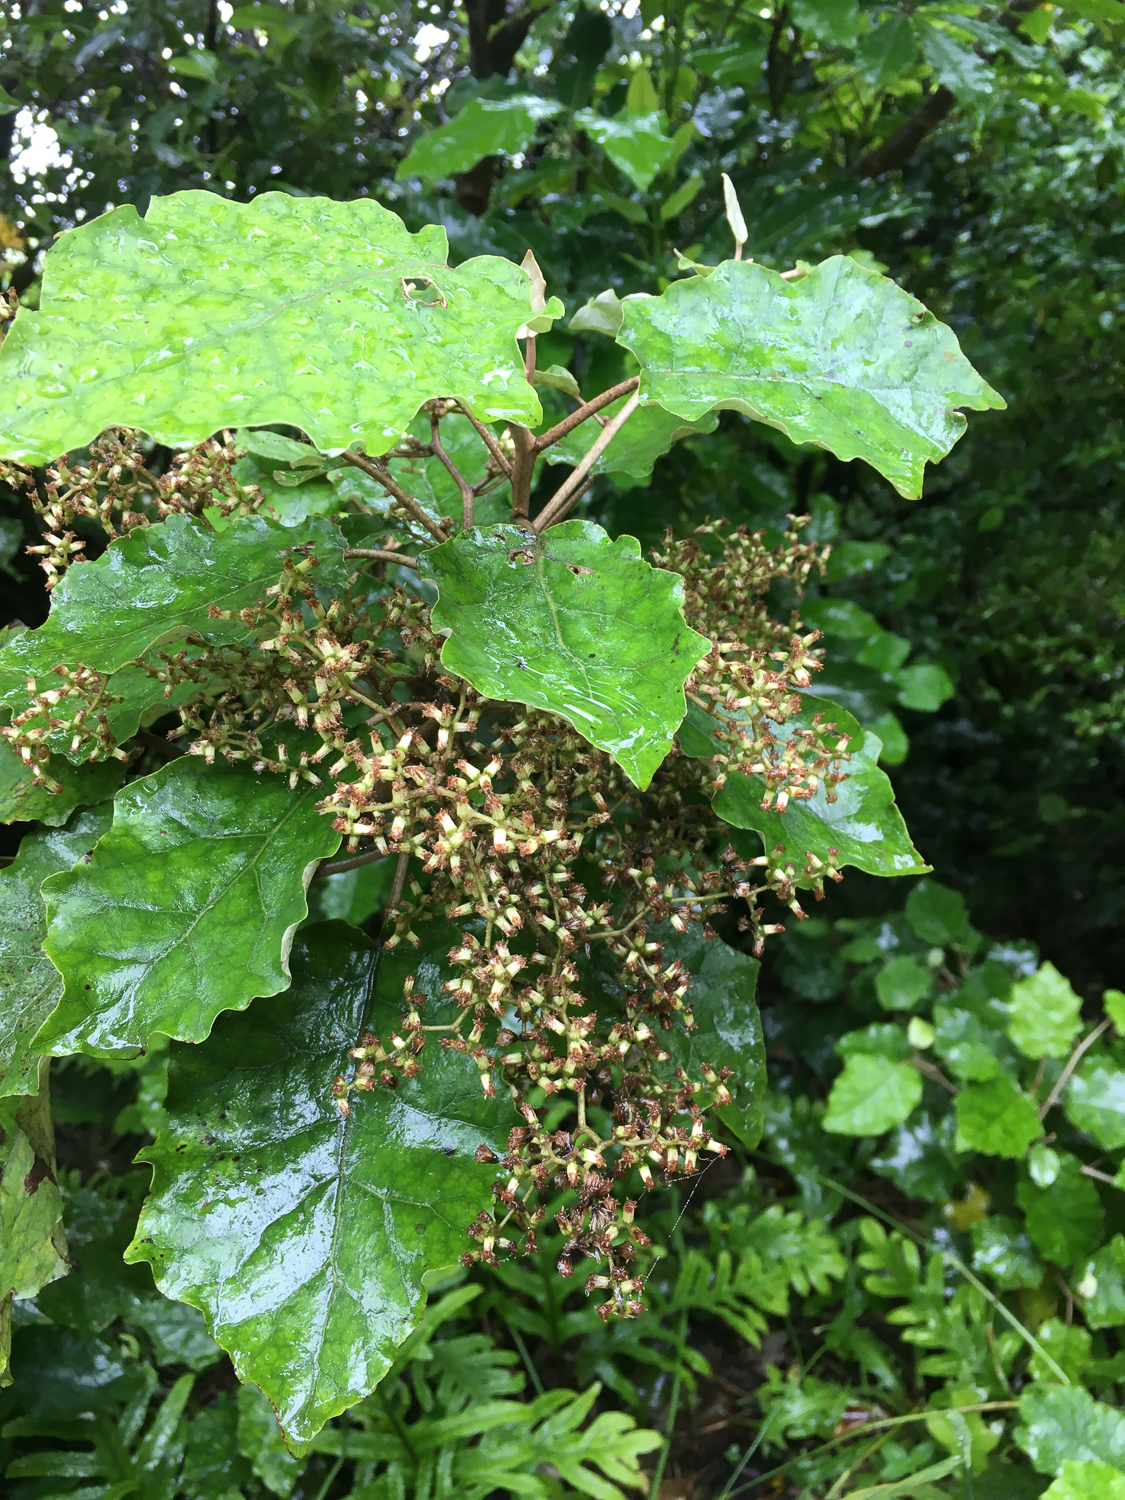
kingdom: Plantae
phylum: Tracheophyta
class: Magnoliopsida
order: Asterales
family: Asteraceae
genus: Brachyglottis
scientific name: Brachyglottis repanda
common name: Hedge ragwort
